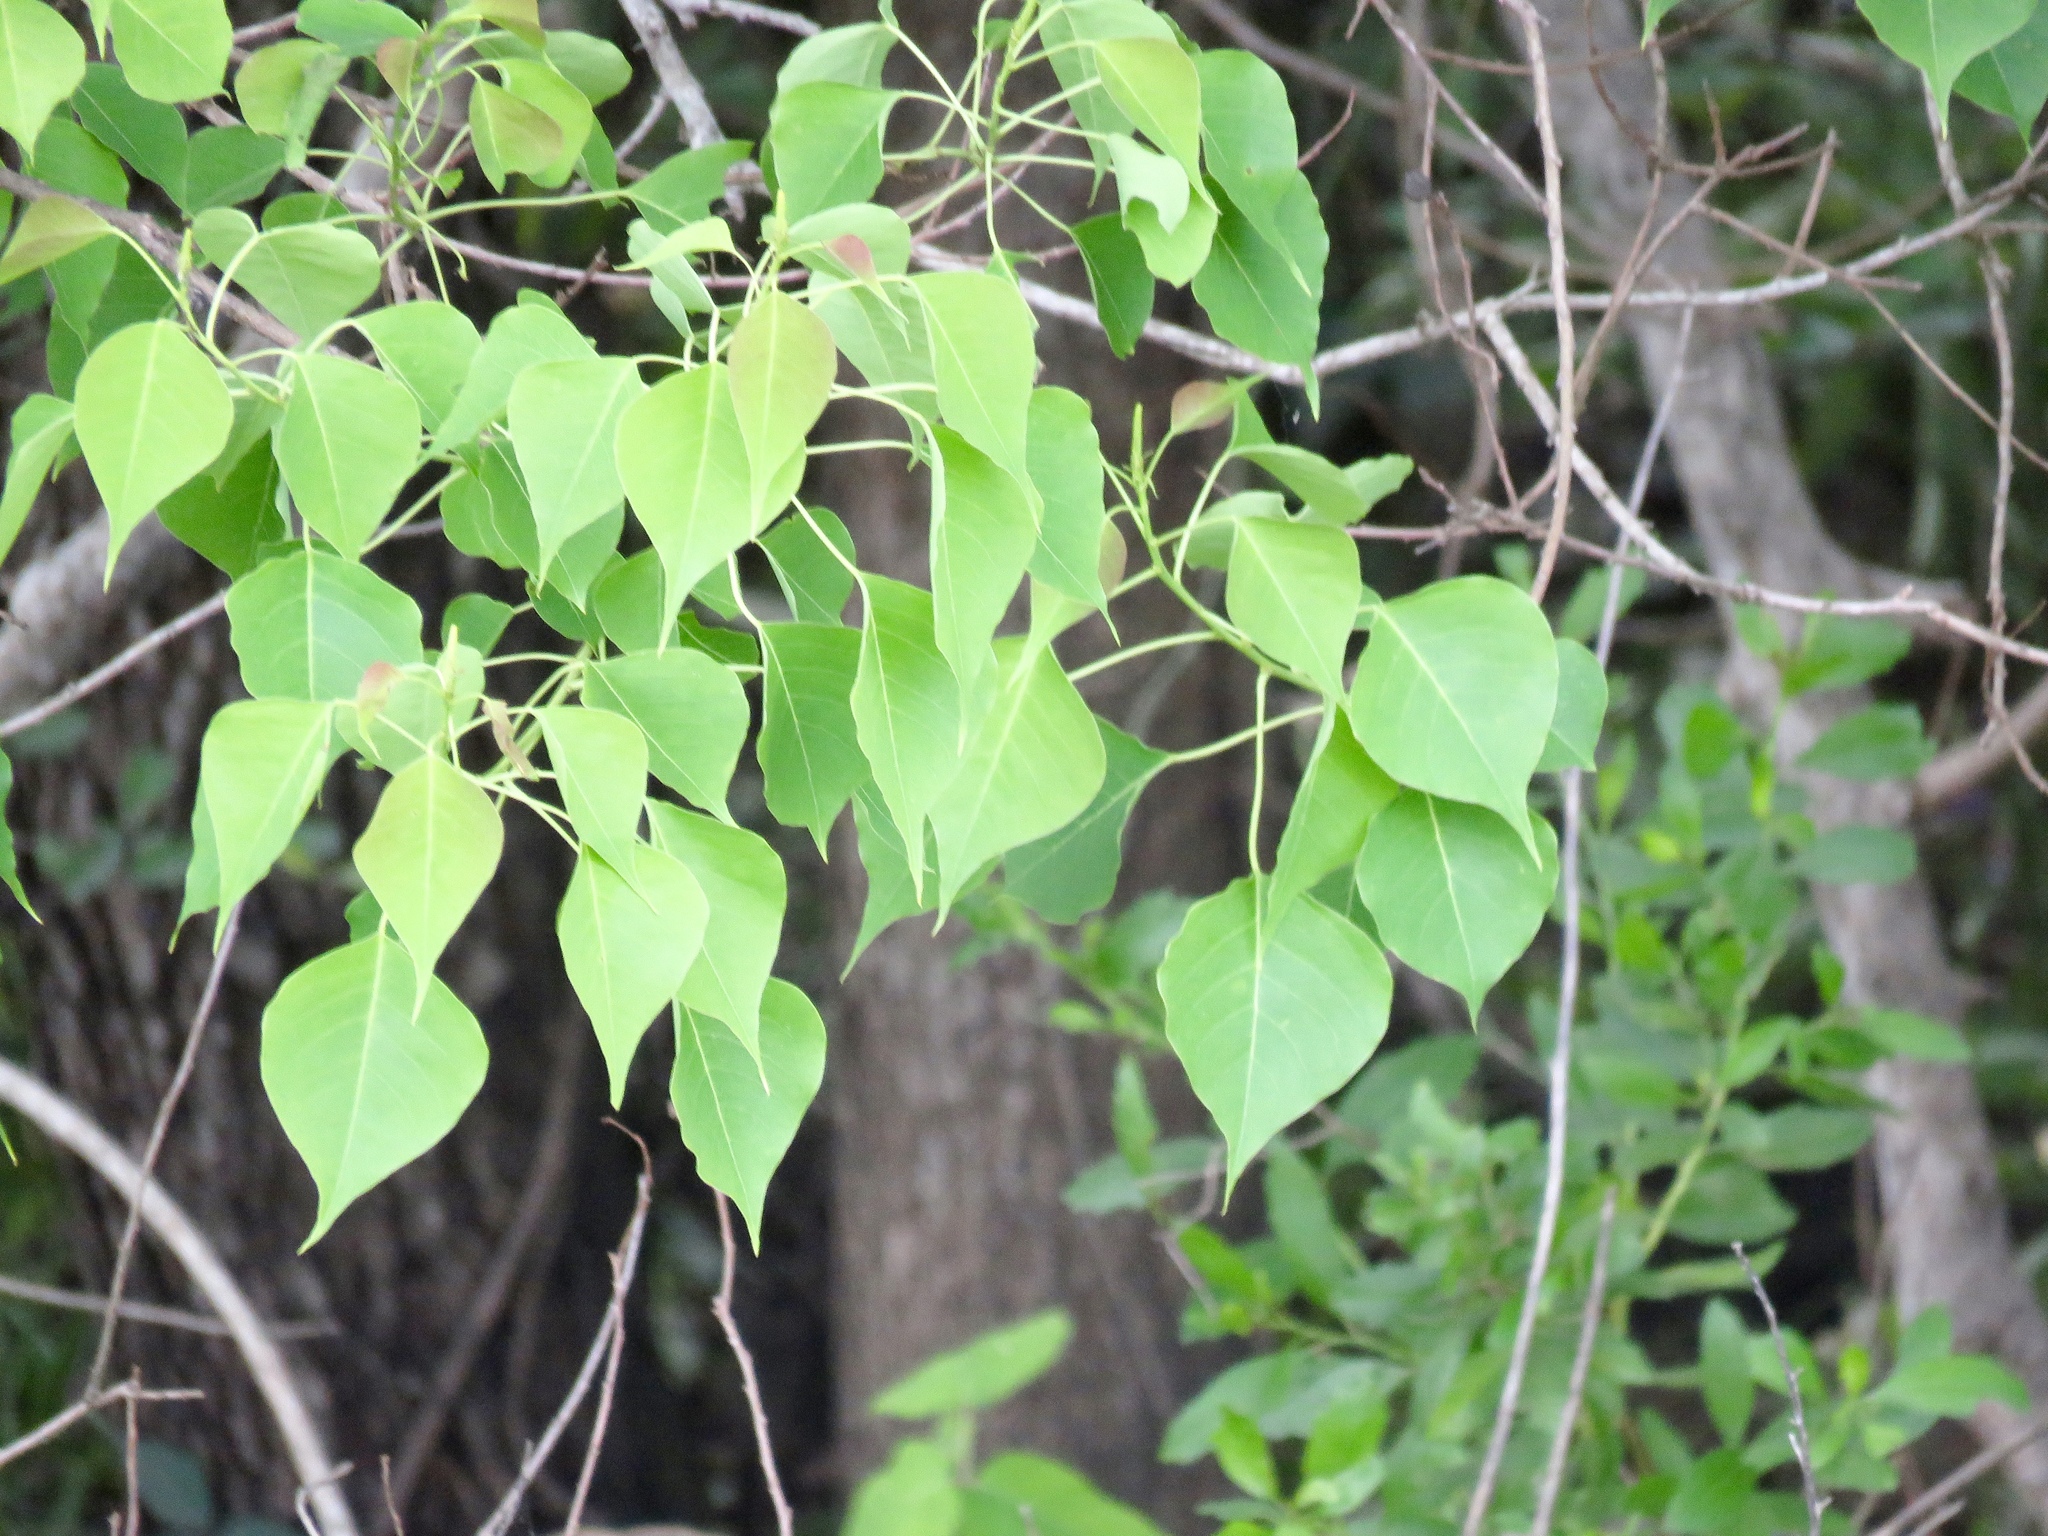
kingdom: Plantae
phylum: Tracheophyta
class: Magnoliopsida
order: Malpighiales
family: Euphorbiaceae
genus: Triadica
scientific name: Triadica sebifera
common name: Chinese tallow
